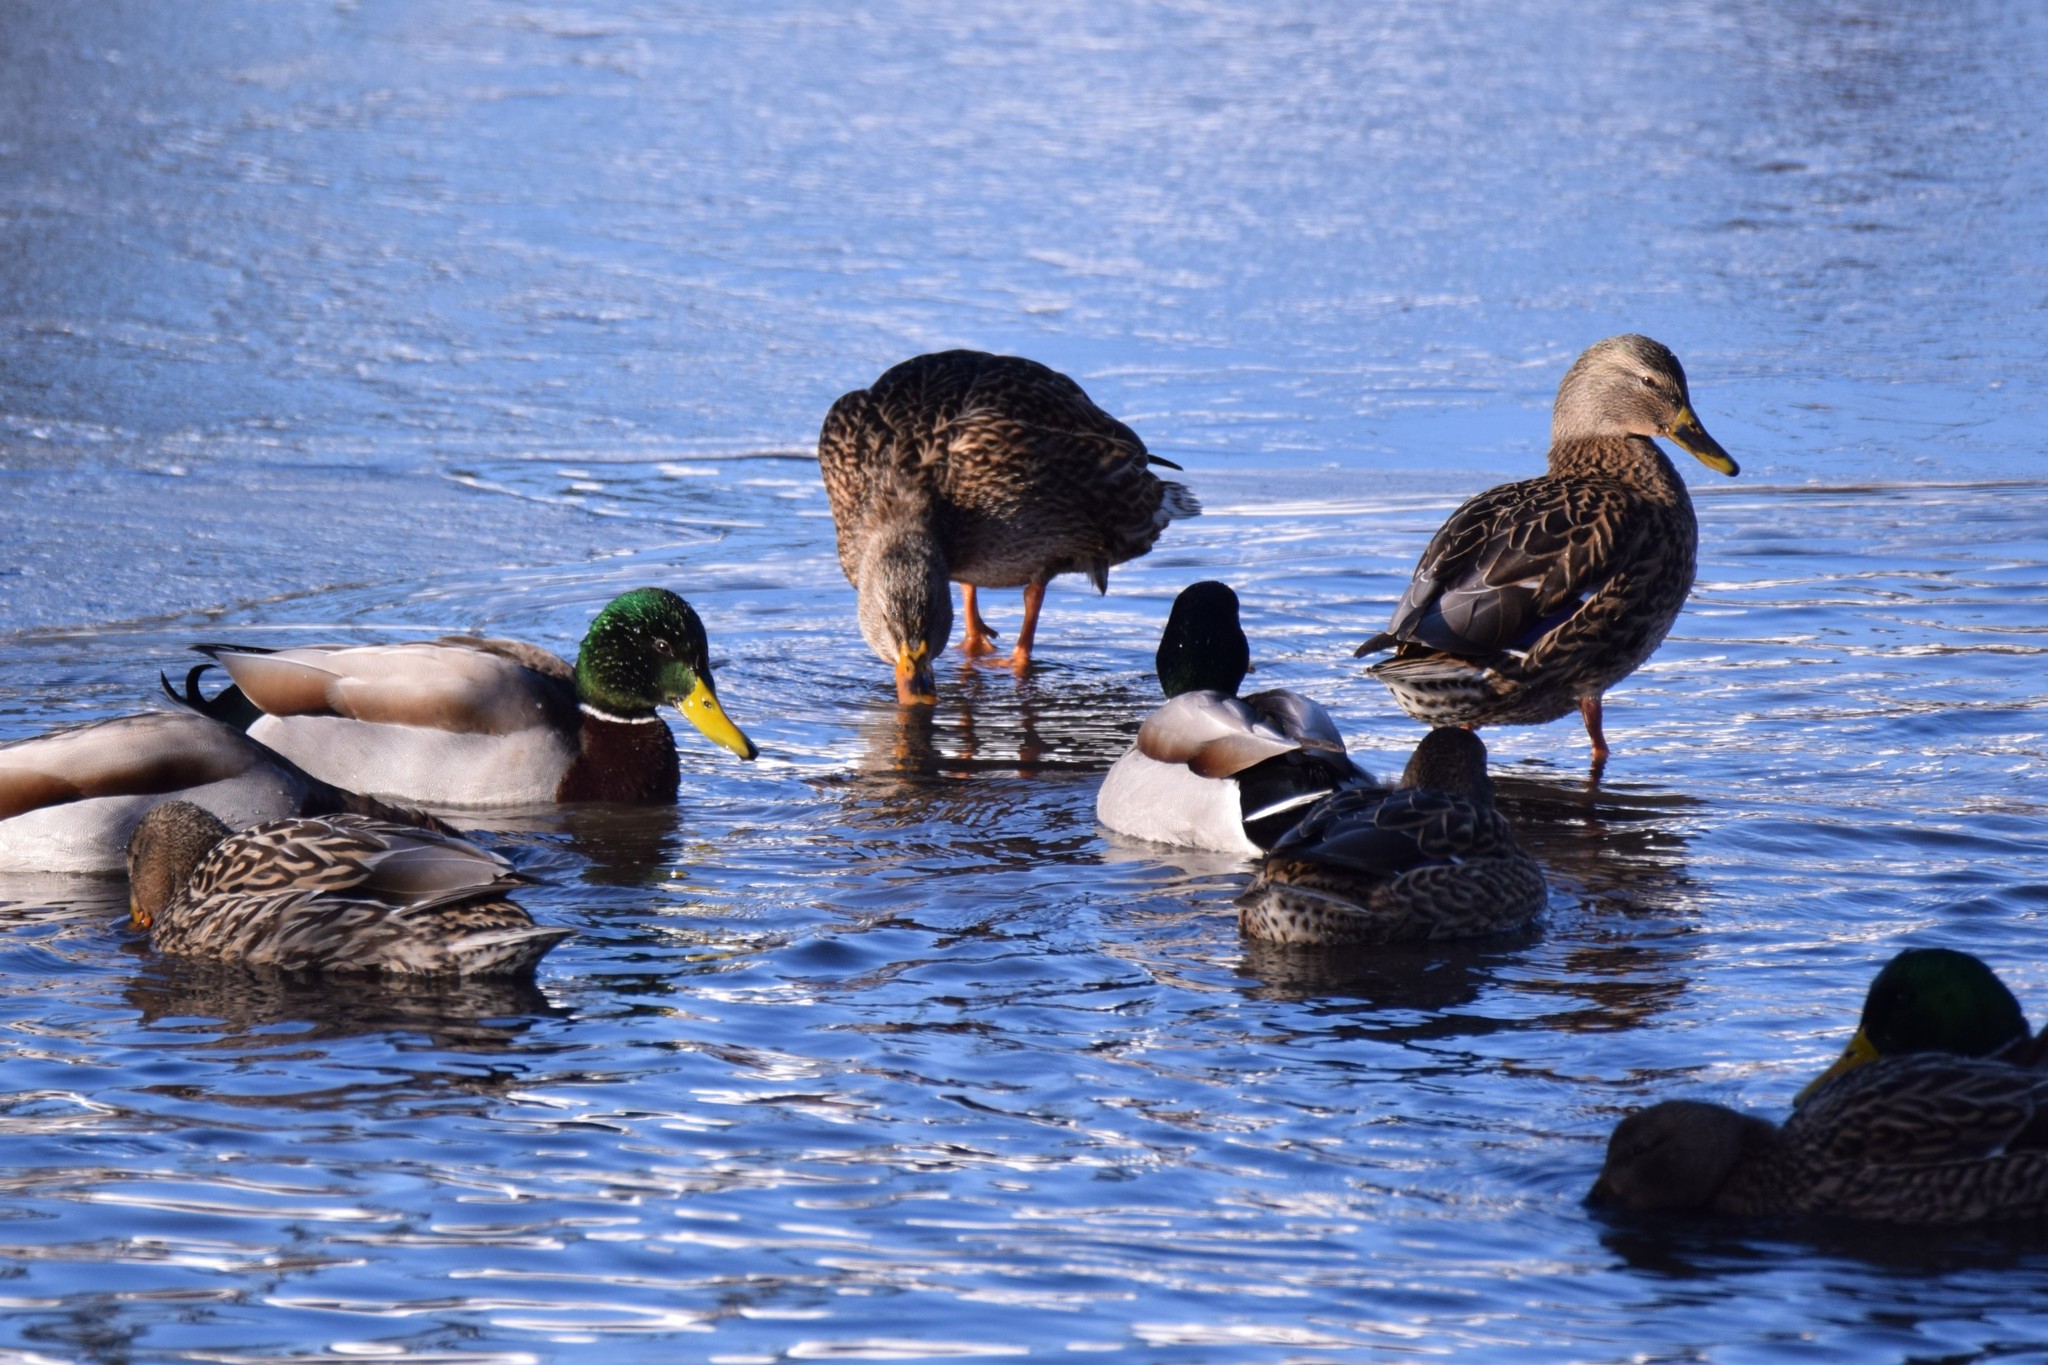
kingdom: Animalia
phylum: Chordata
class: Aves
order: Anseriformes
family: Anatidae
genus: Anas
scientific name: Anas platyrhynchos
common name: Mallard
